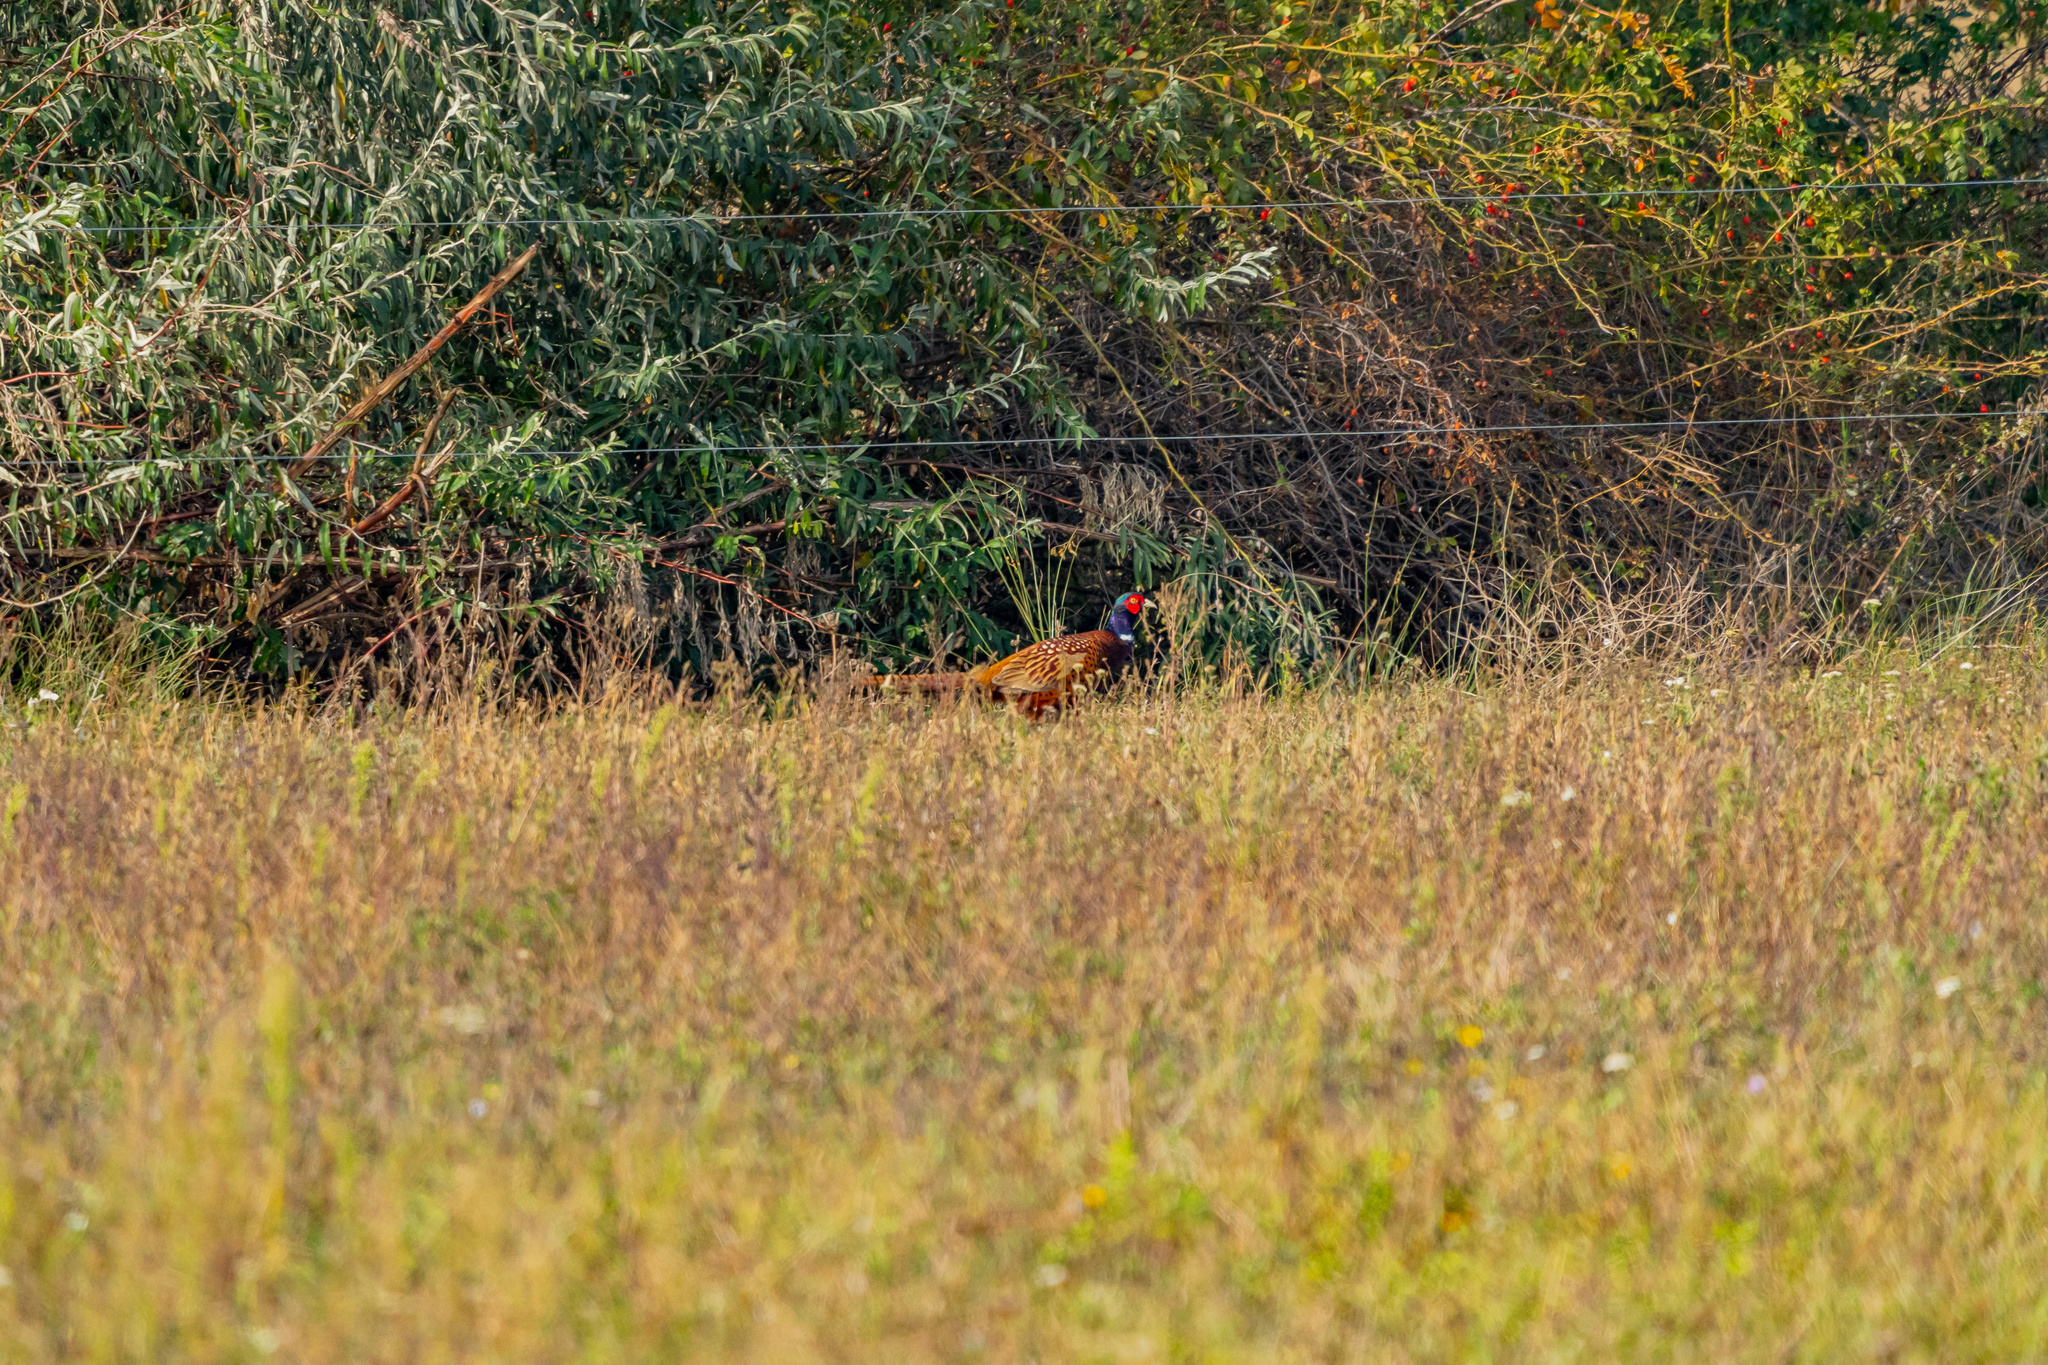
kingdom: Animalia
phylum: Chordata
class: Aves
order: Galliformes
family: Phasianidae
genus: Phasianus
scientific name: Phasianus colchicus
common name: Common pheasant
